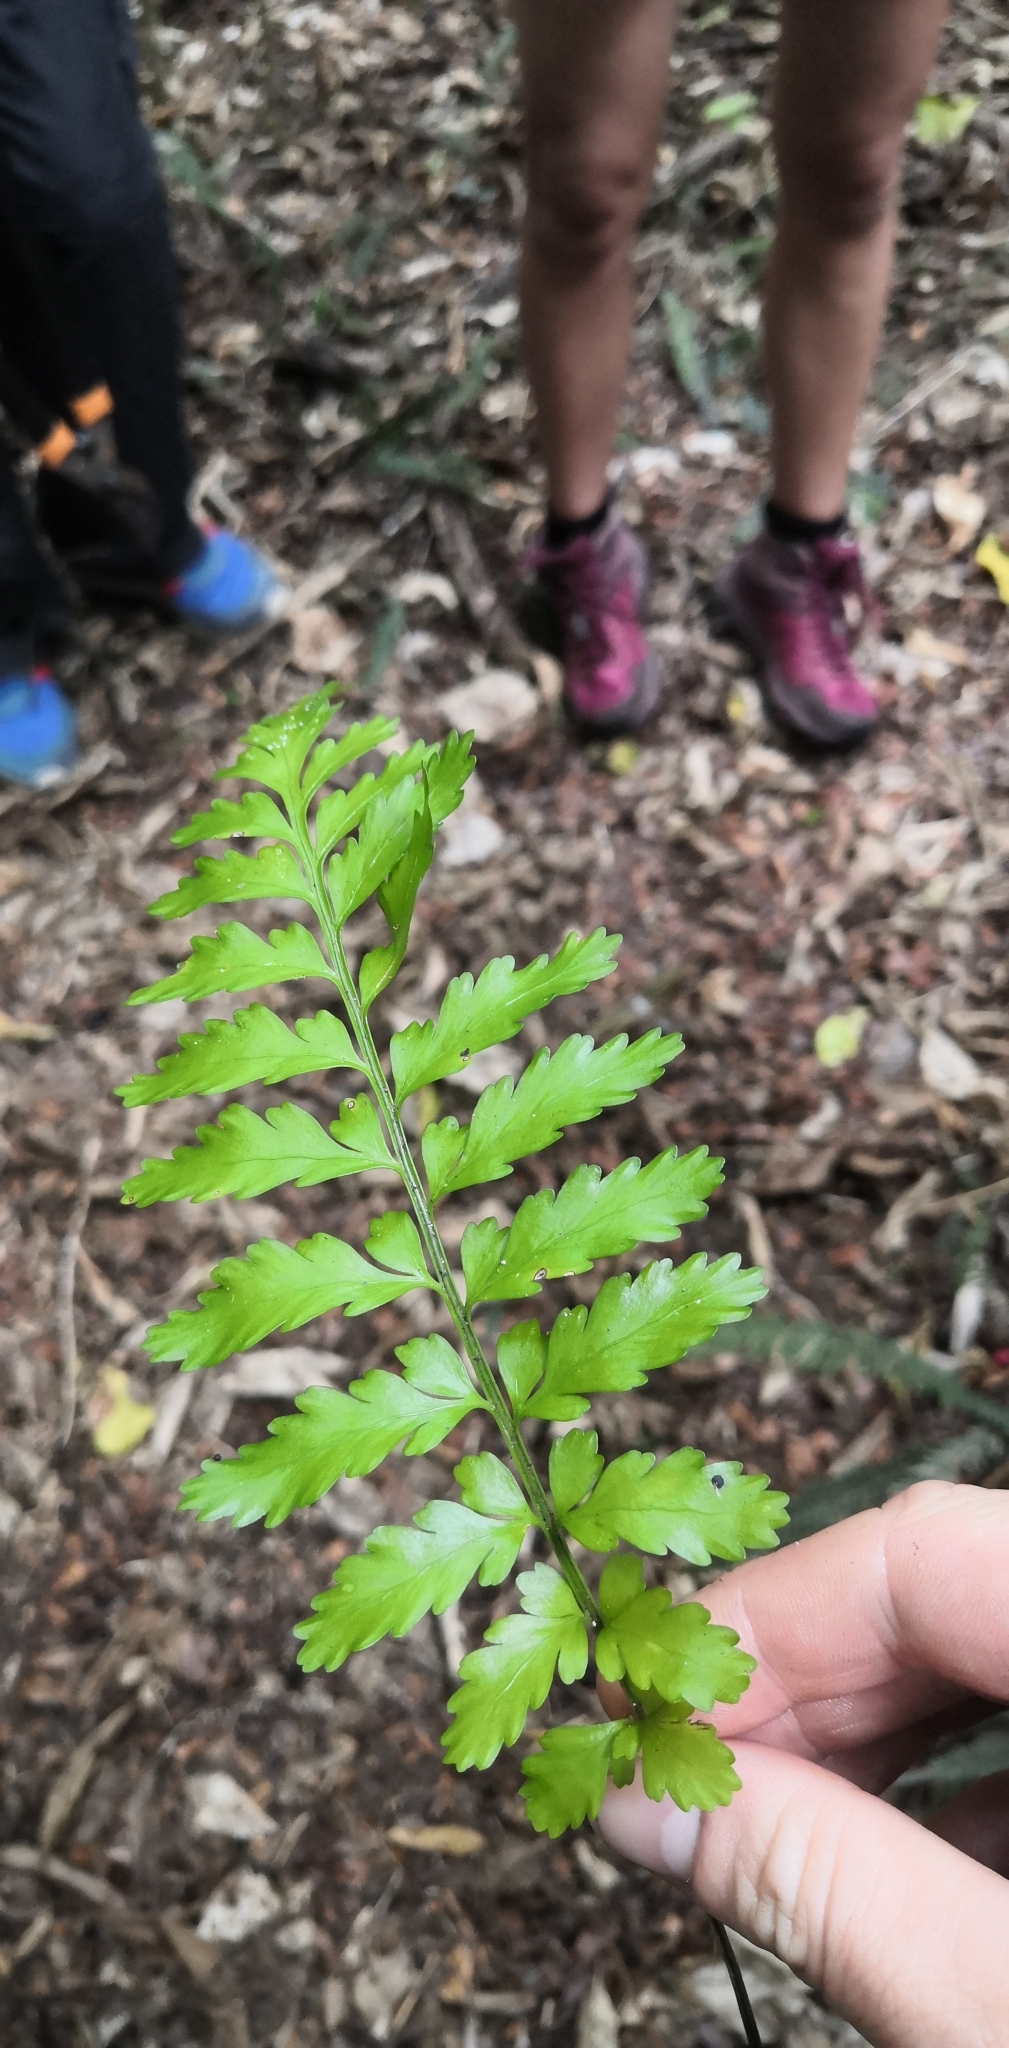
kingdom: Plantae
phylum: Tracheophyta
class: Polypodiopsida
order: Polypodiales
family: Aspleniaceae
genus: Asplenium
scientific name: Asplenium lamprophyllum
